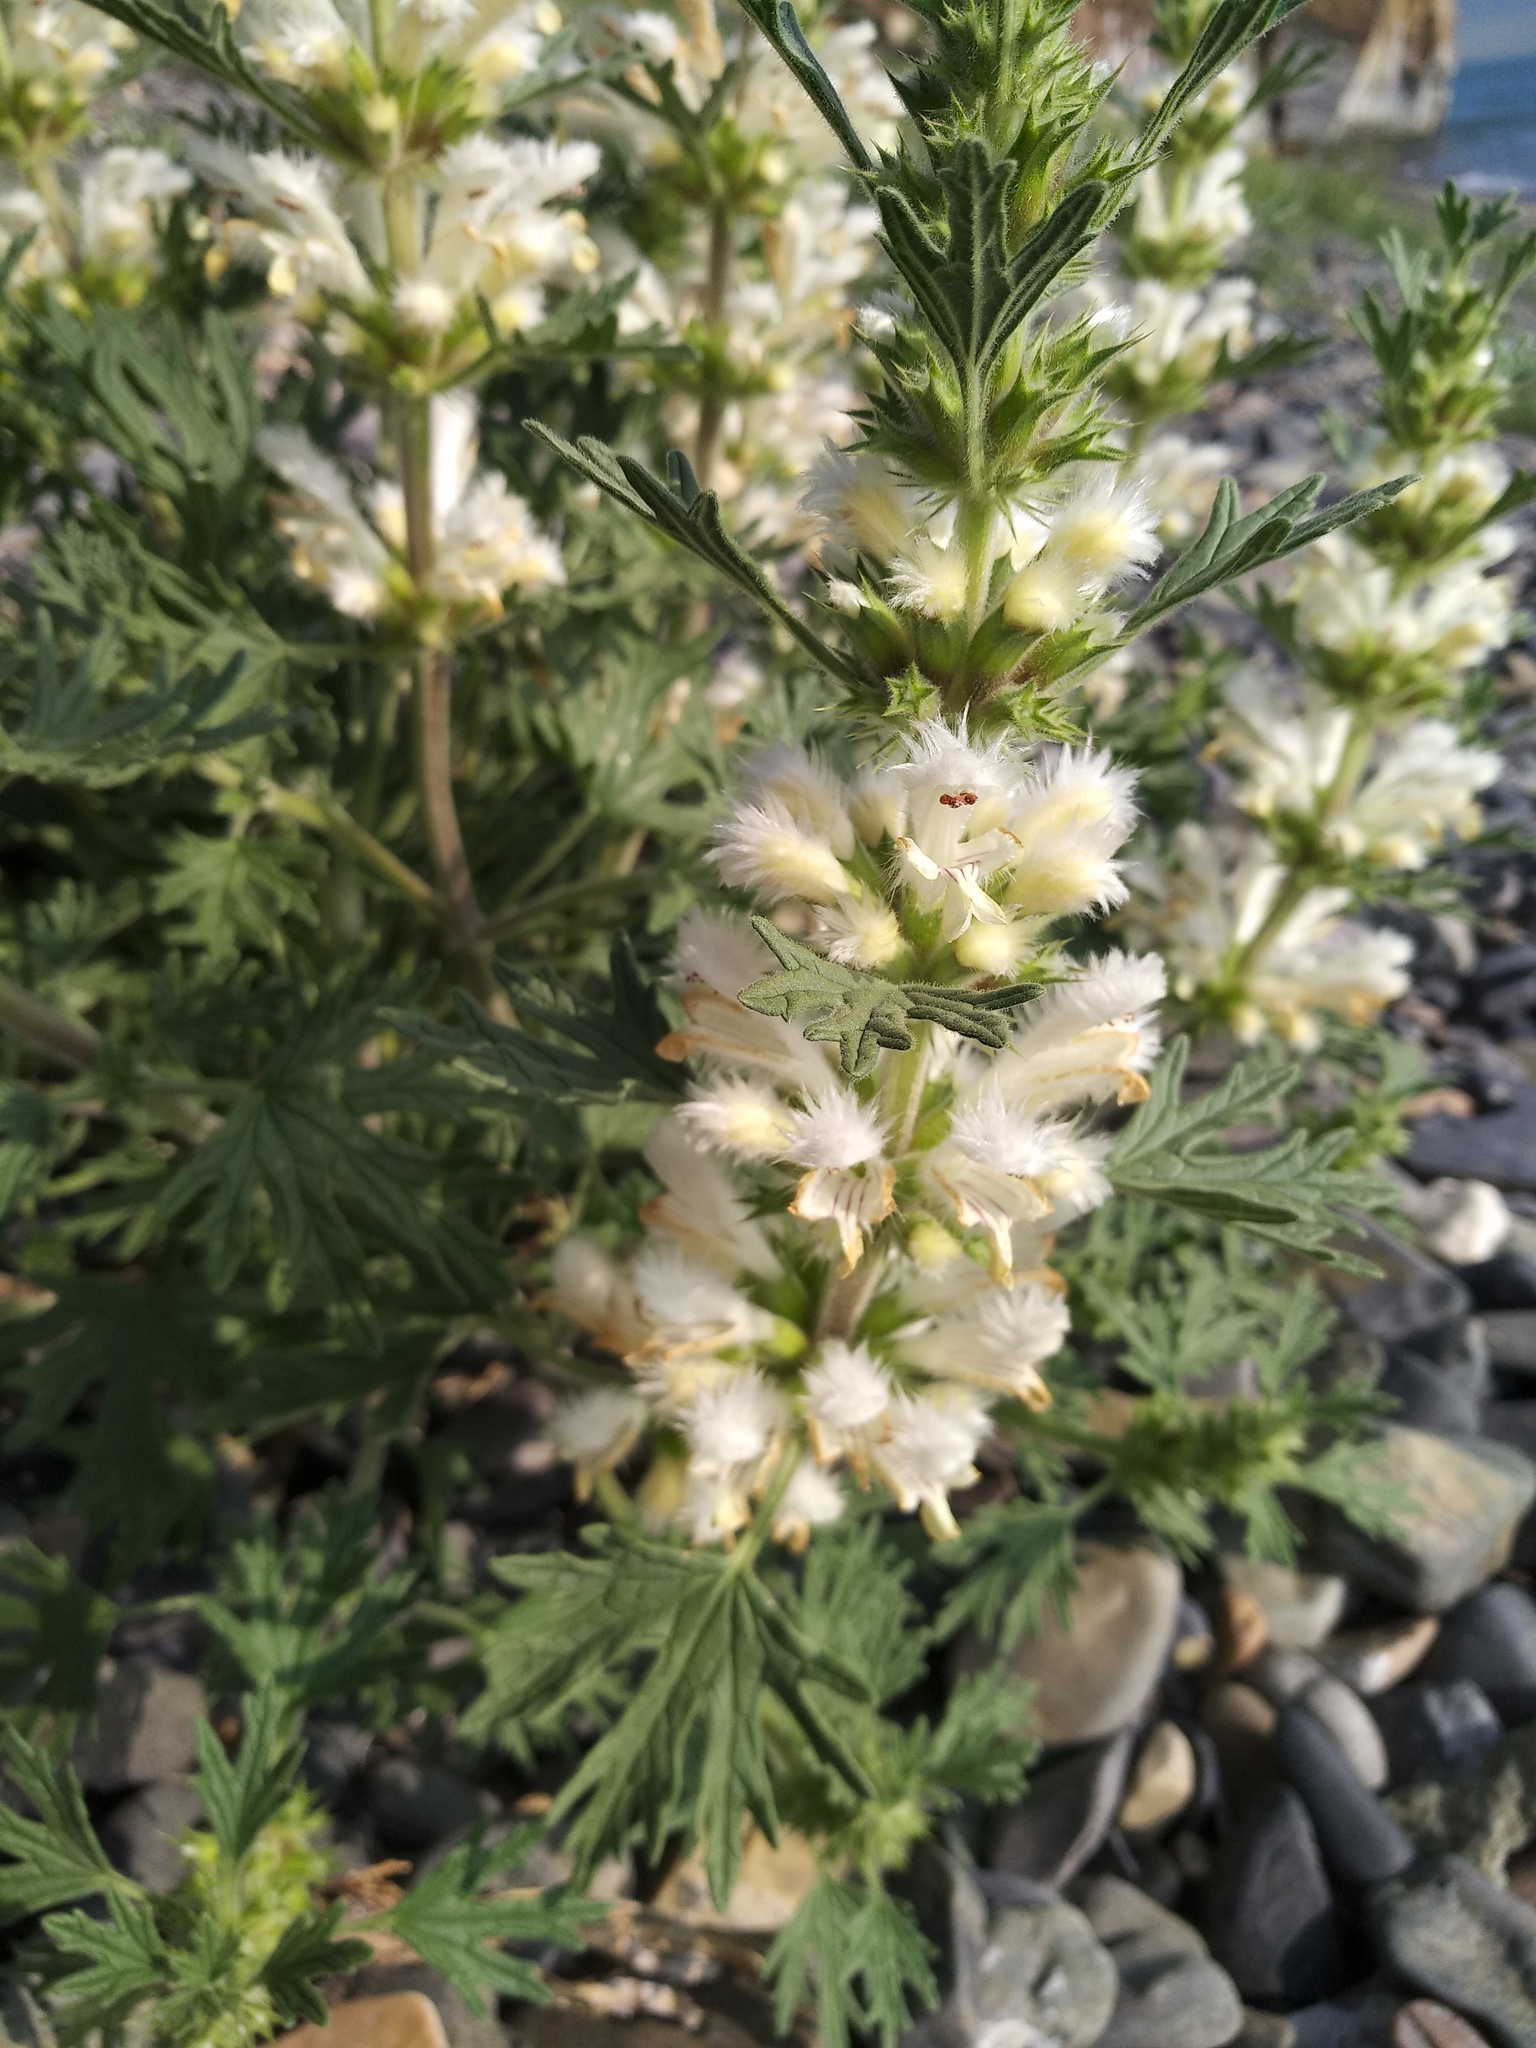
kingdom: Plantae
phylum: Tracheophyta
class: Magnoliopsida
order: Lamiales
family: Lamiaceae
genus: Panzerina
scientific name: Panzerina lanata
